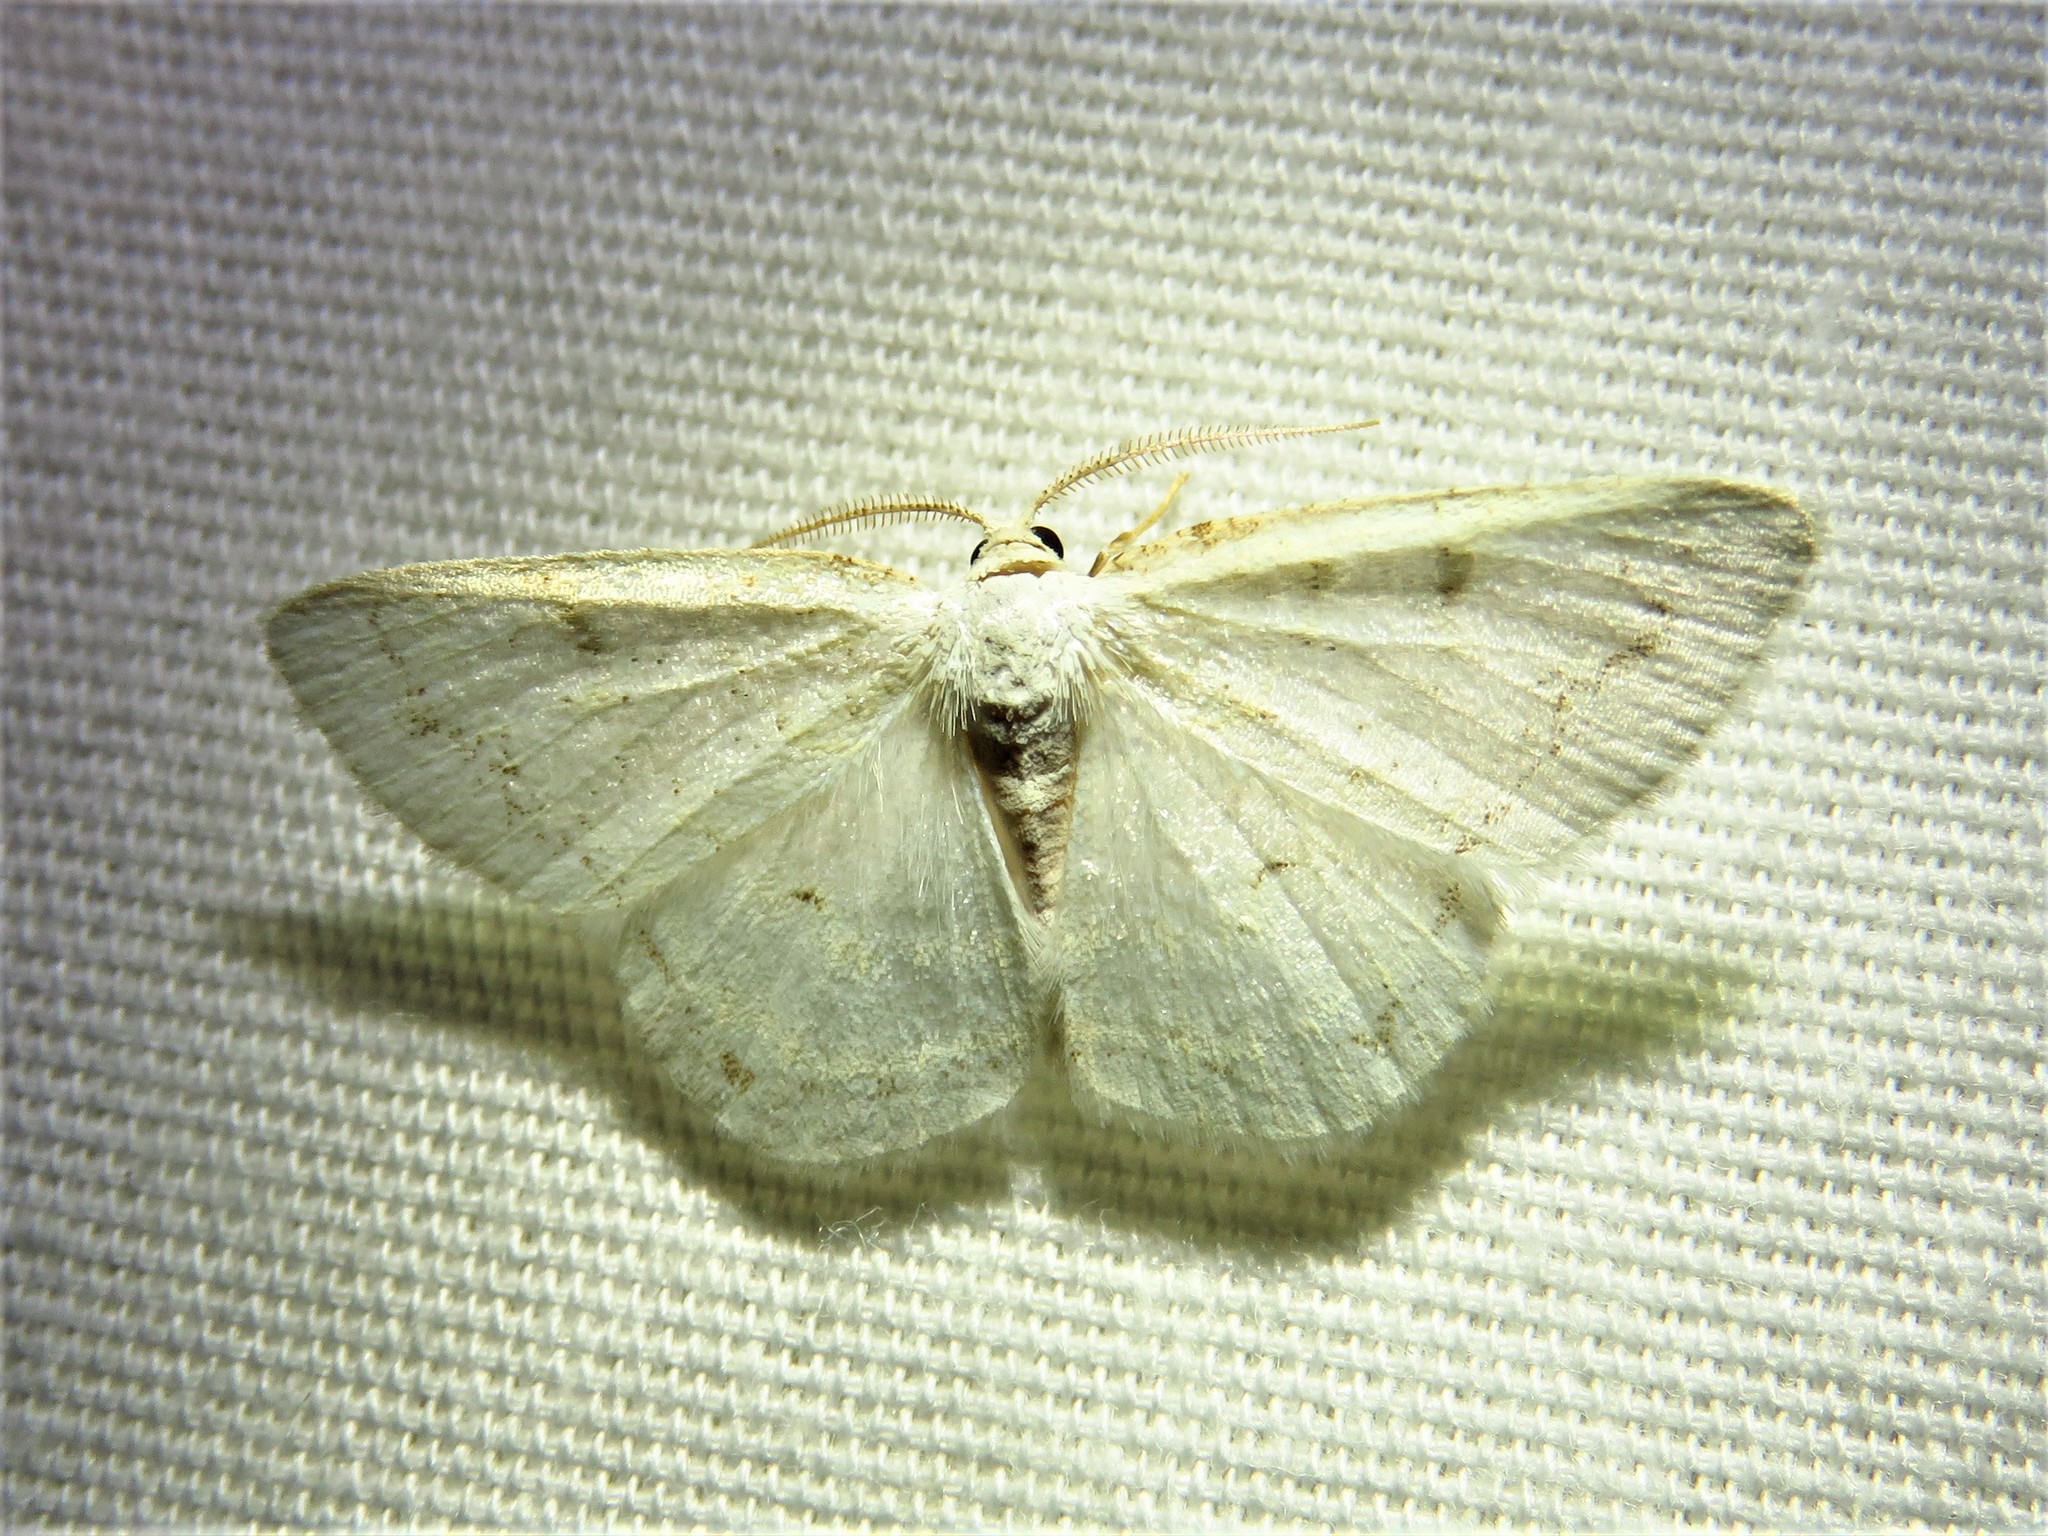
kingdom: Animalia
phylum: Arthropoda
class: Insecta
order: Lepidoptera
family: Geometridae
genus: Protitame
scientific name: Protitame virginalis
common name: Virgin moth
